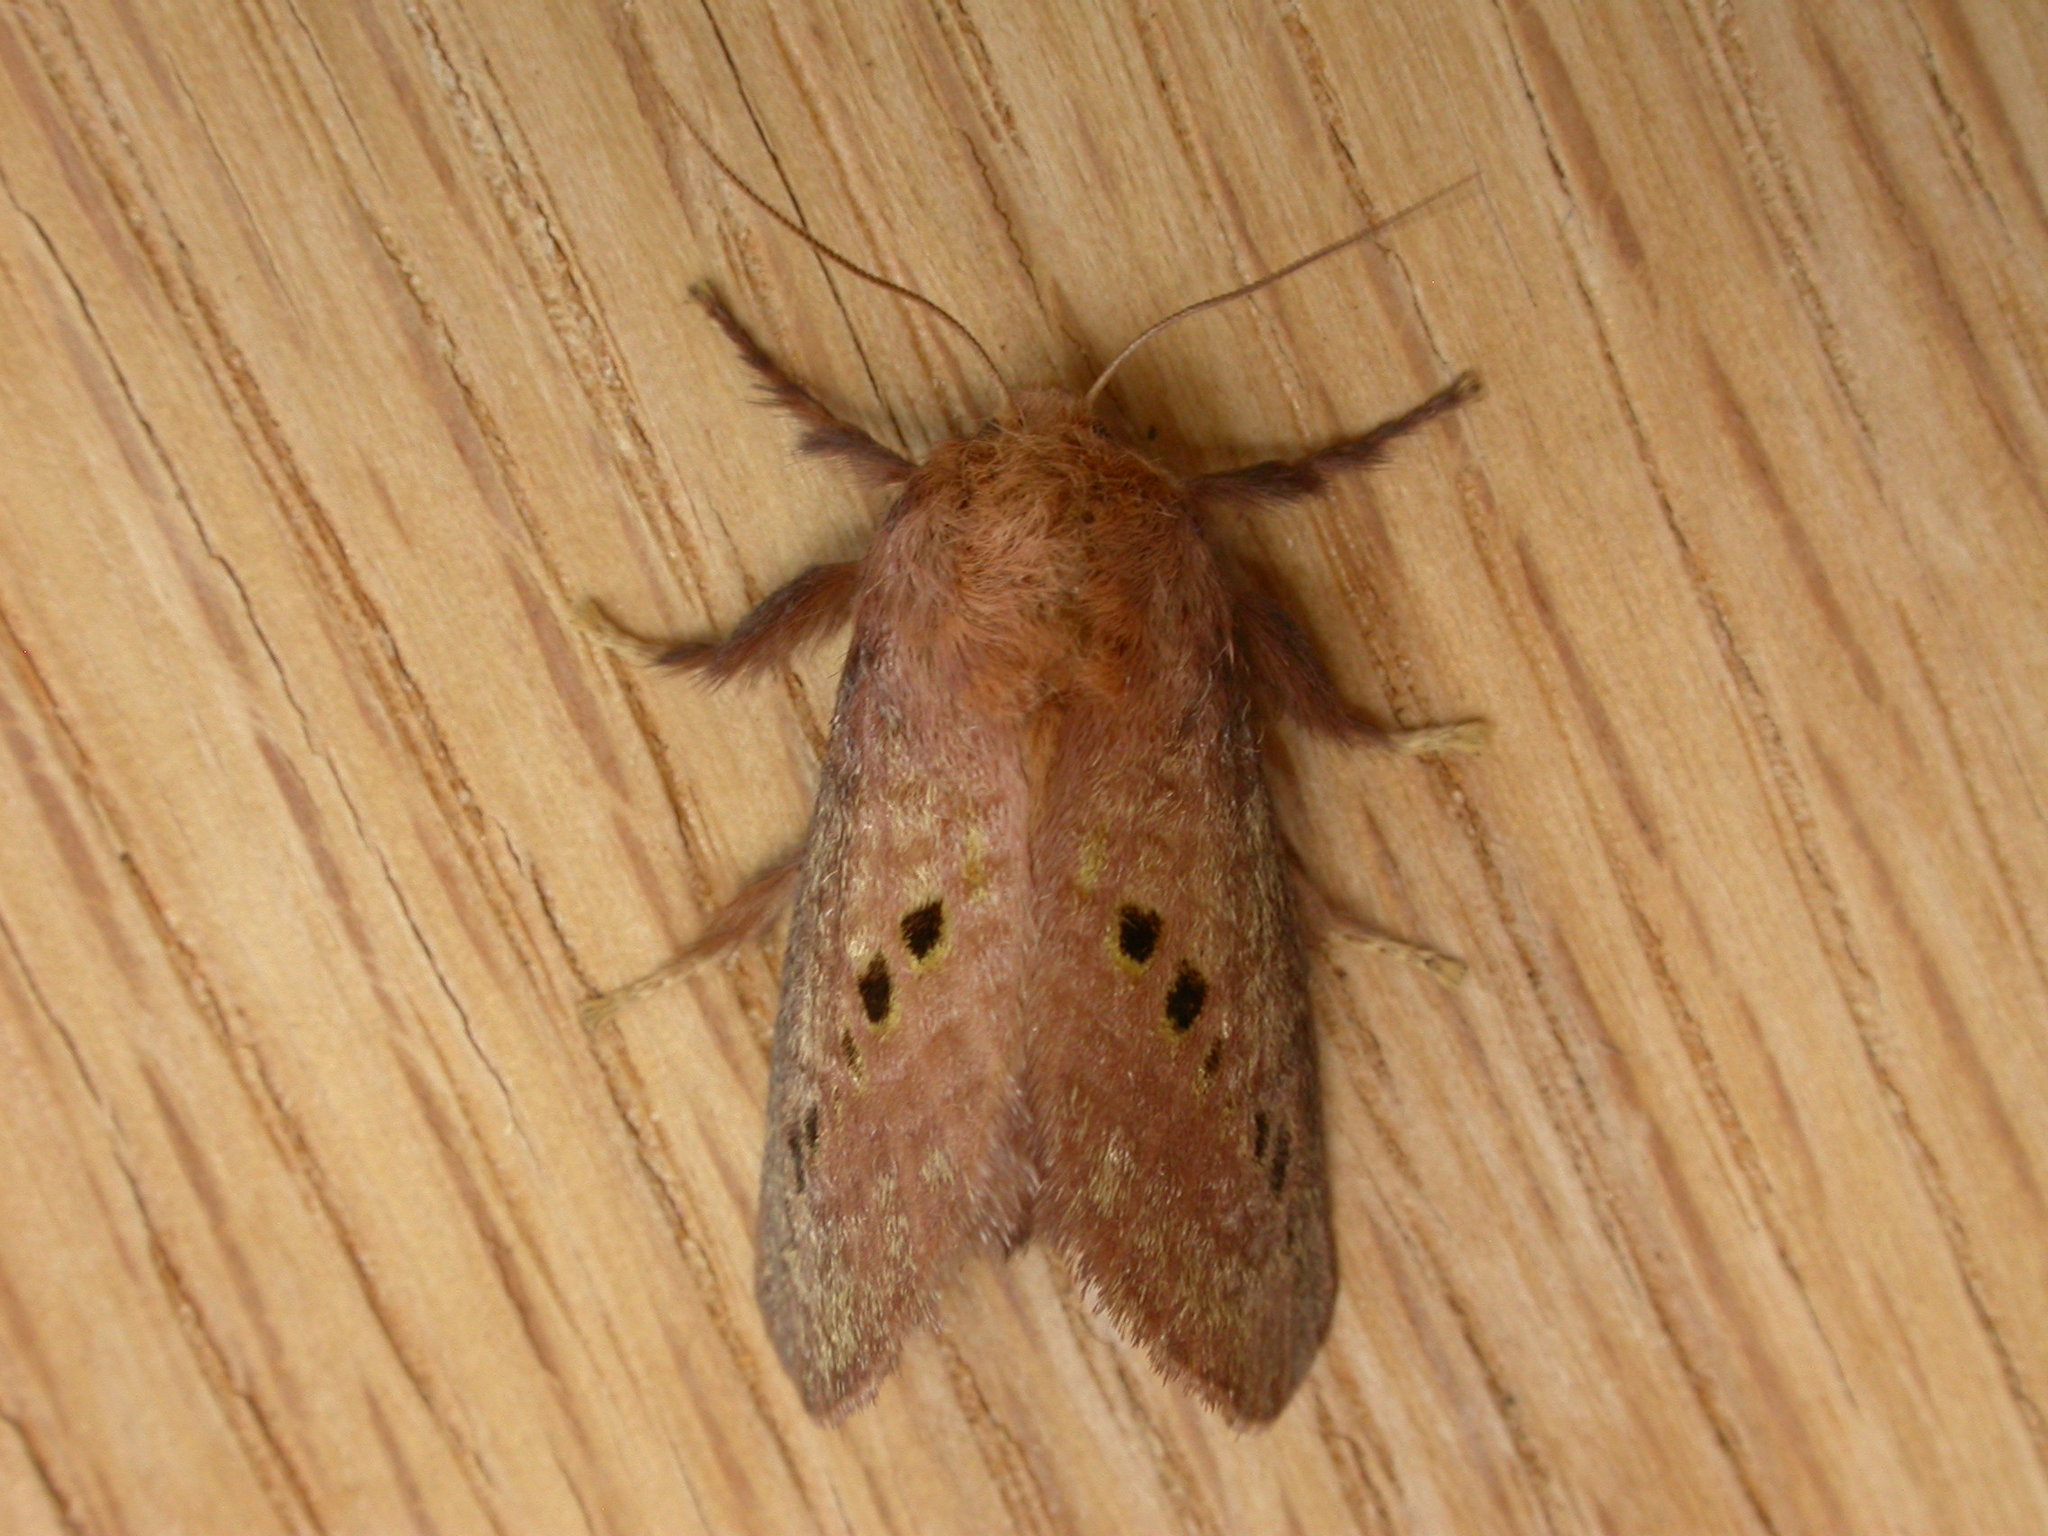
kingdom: Animalia
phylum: Arthropoda
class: Insecta
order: Lepidoptera
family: Limacodidae
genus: Doratifera
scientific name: Doratifera quadriguttata
